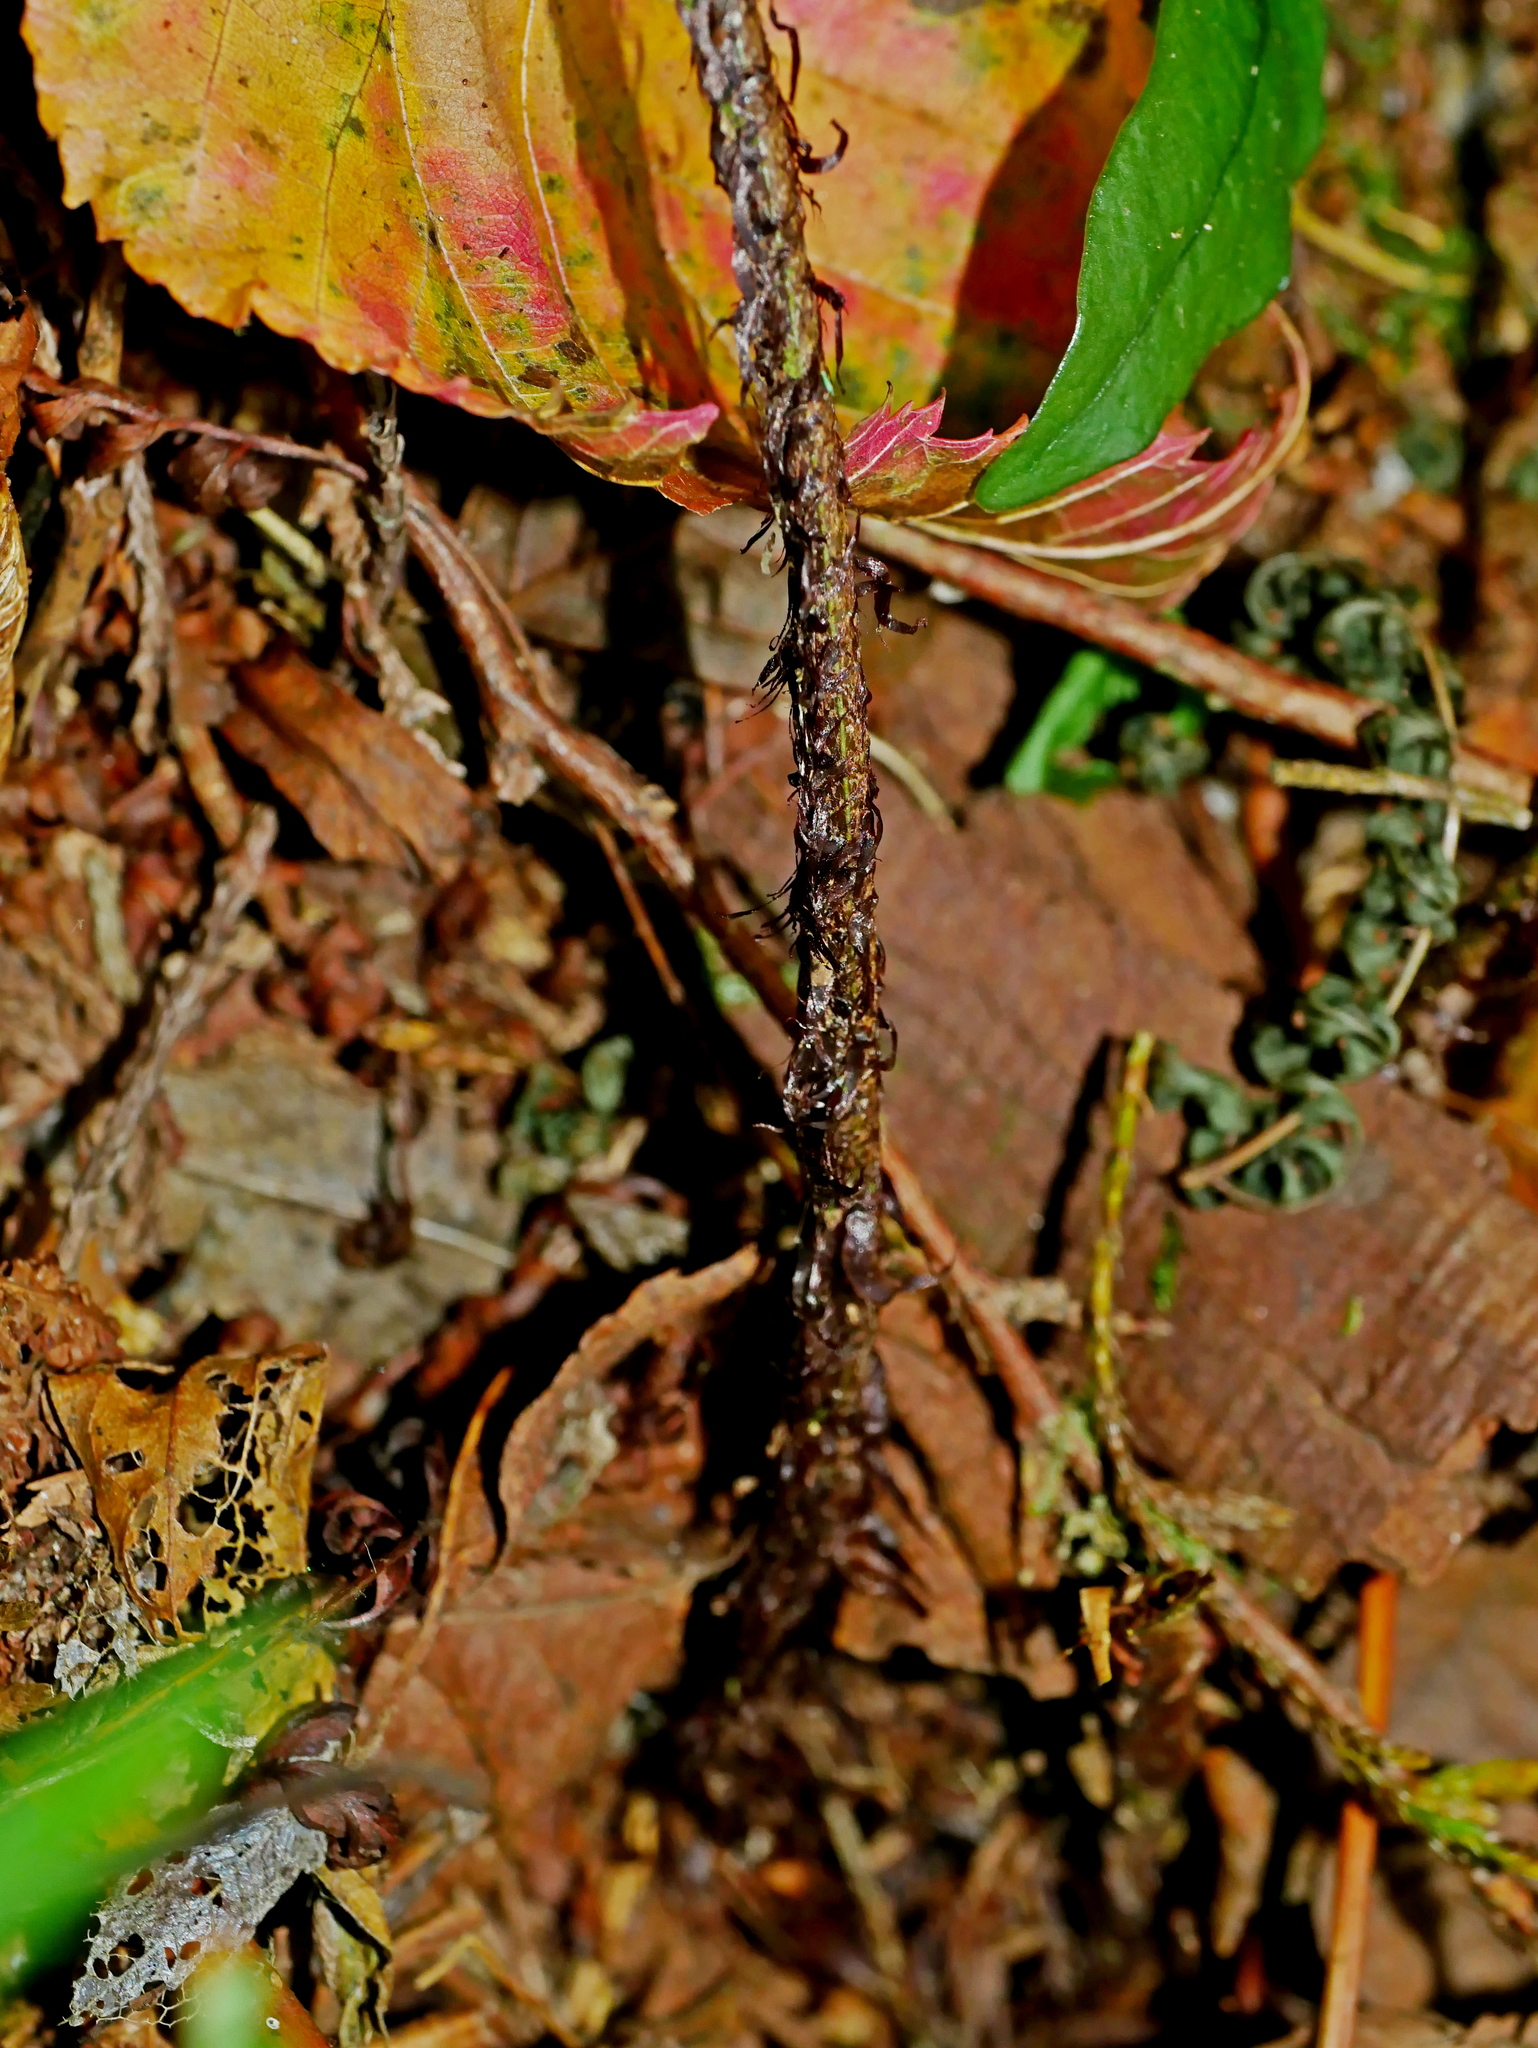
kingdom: Plantae
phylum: Tracheophyta
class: Polypodiopsida
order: Polypodiales
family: Dryopteridaceae
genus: Dryopteris
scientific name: Dryopteris formosana
